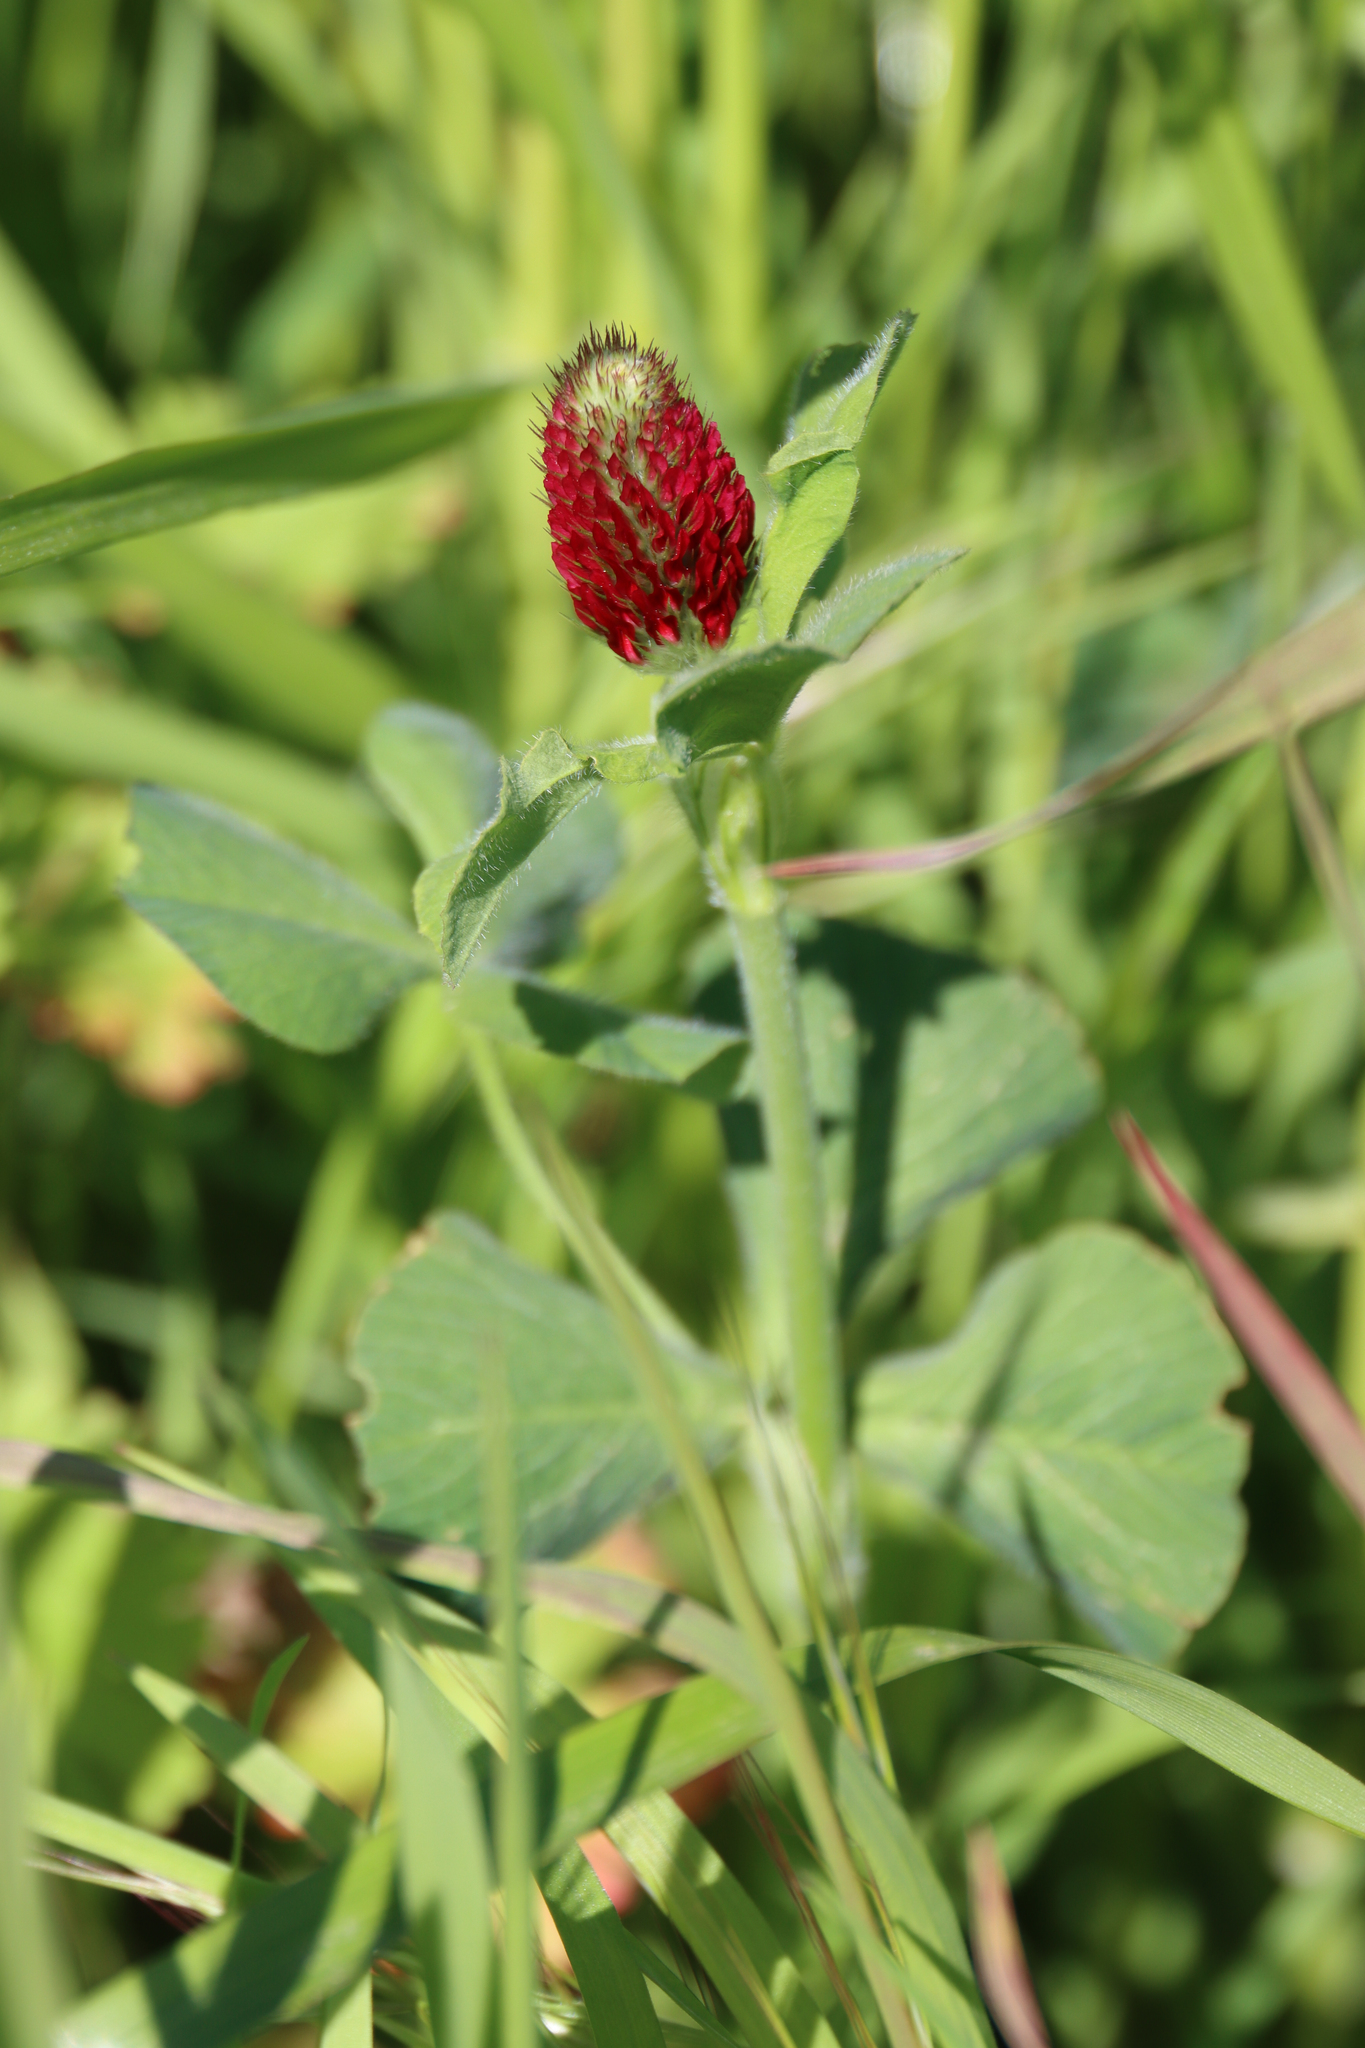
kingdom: Plantae
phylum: Tracheophyta
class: Magnoliopsida
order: Fabales
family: Fabaceae
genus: Trifolium
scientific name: Trifolium incarnatum
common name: Crimson clover
